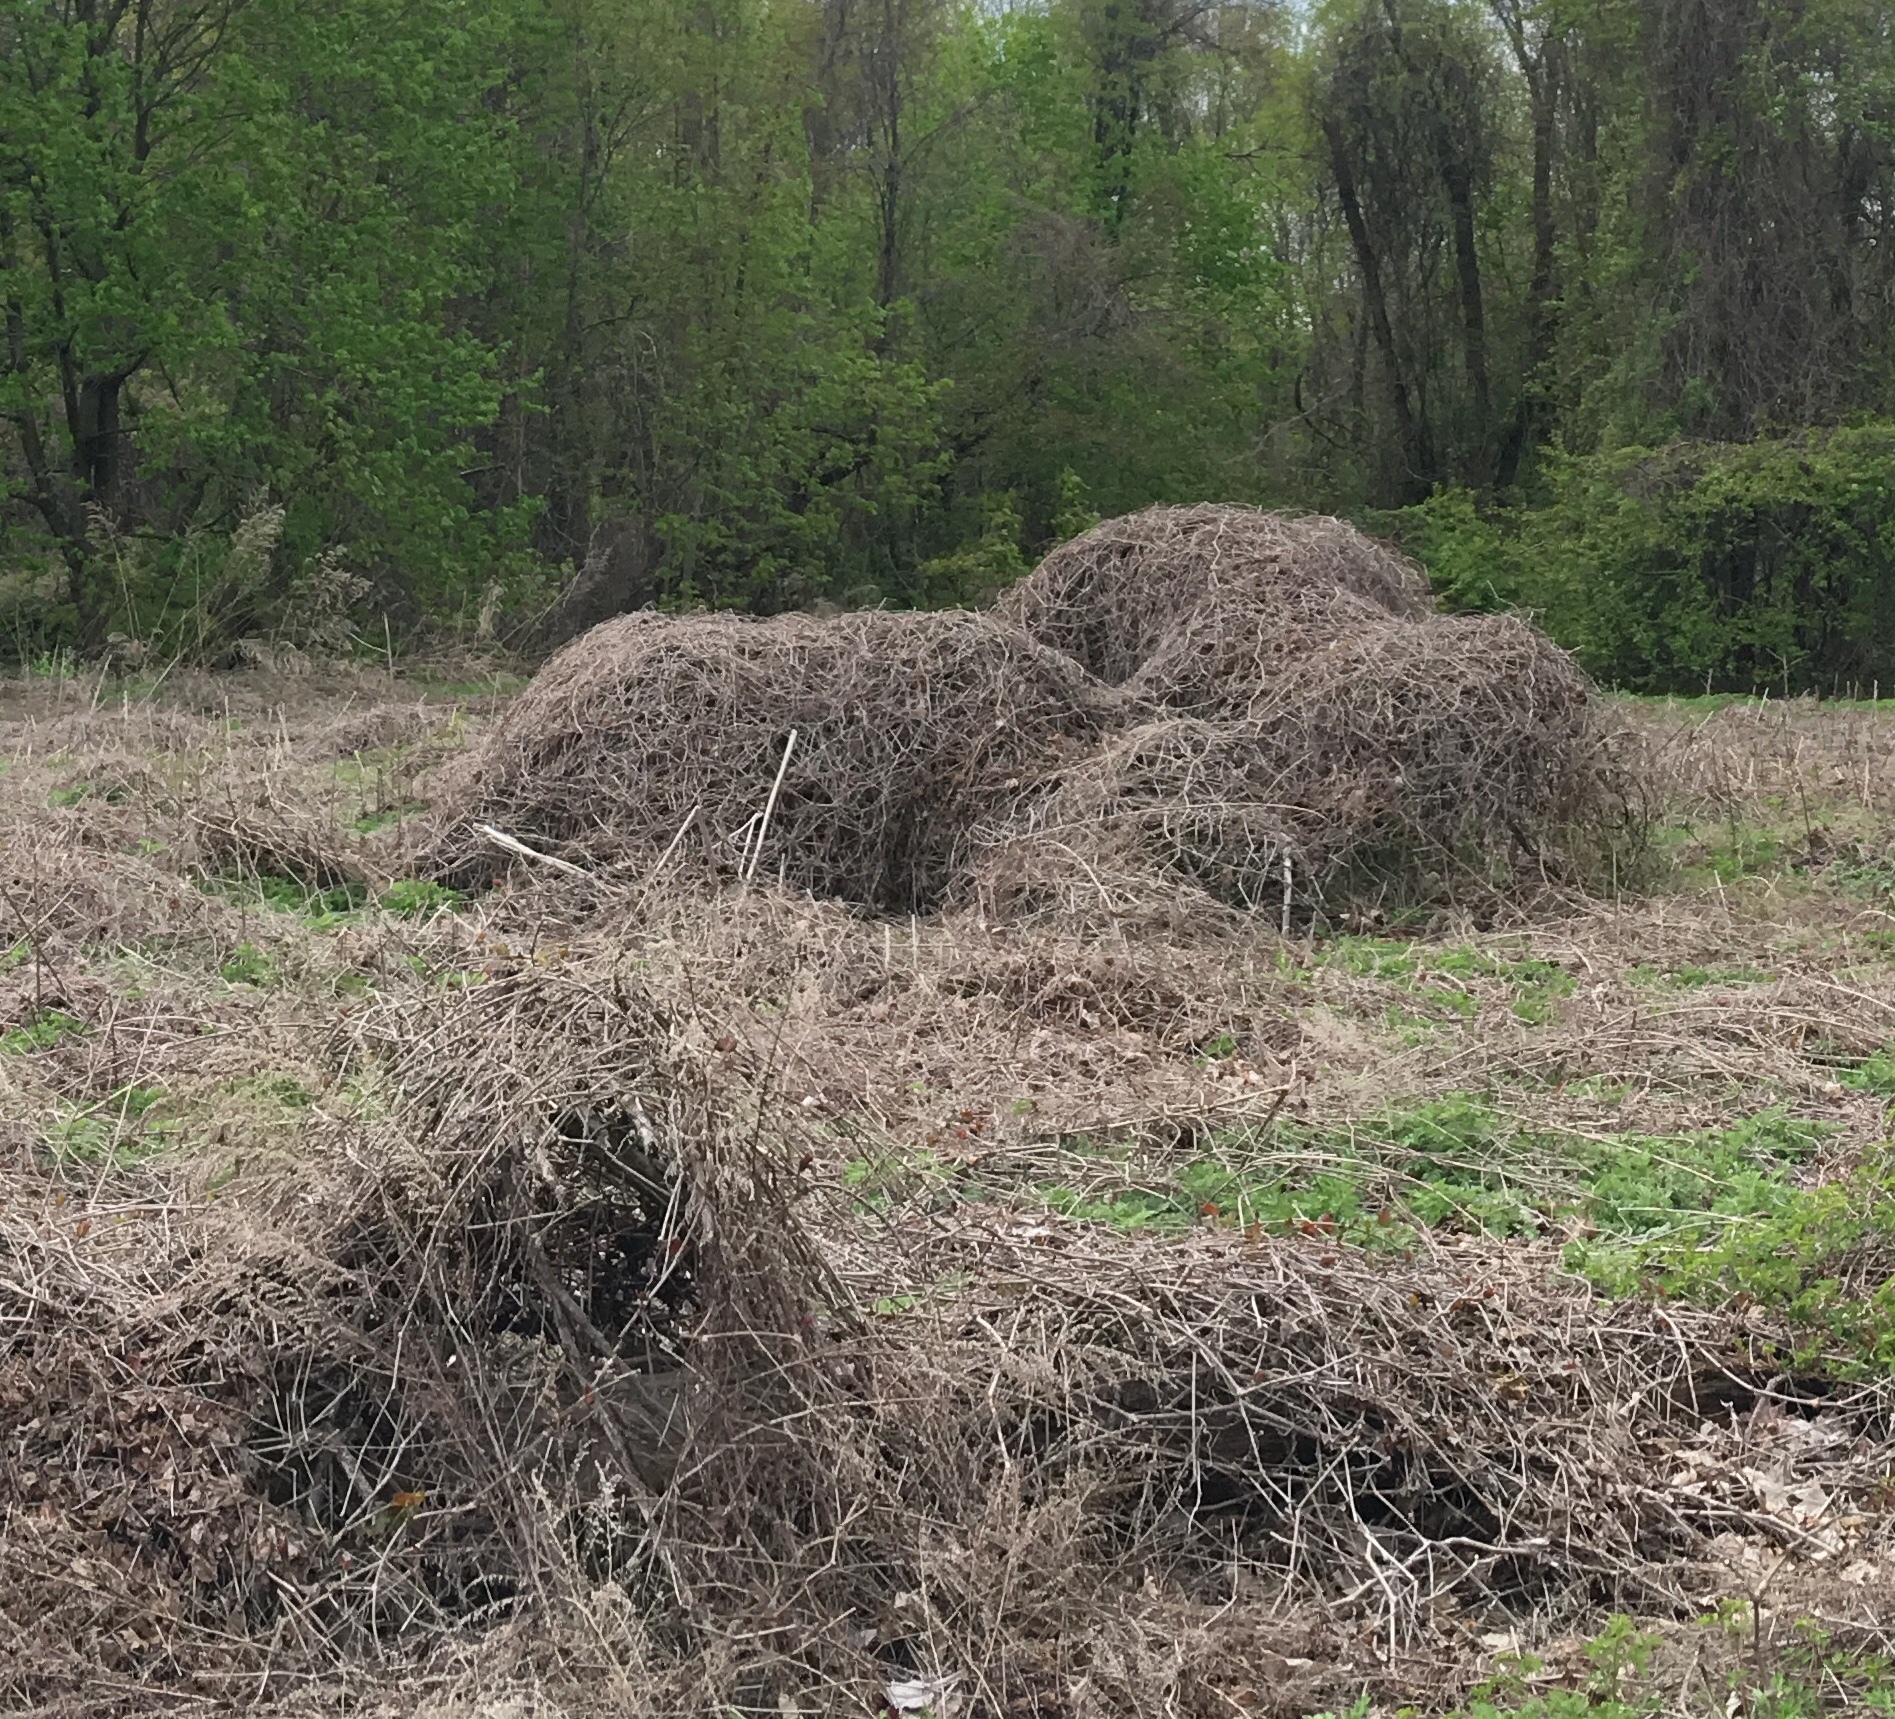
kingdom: Plantae
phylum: Tracheophyta
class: Magnoliopsida
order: Vitales
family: Vitaceae
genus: Ampelopsis
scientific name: Ampelopsis glandulosa
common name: Amur peppervine
